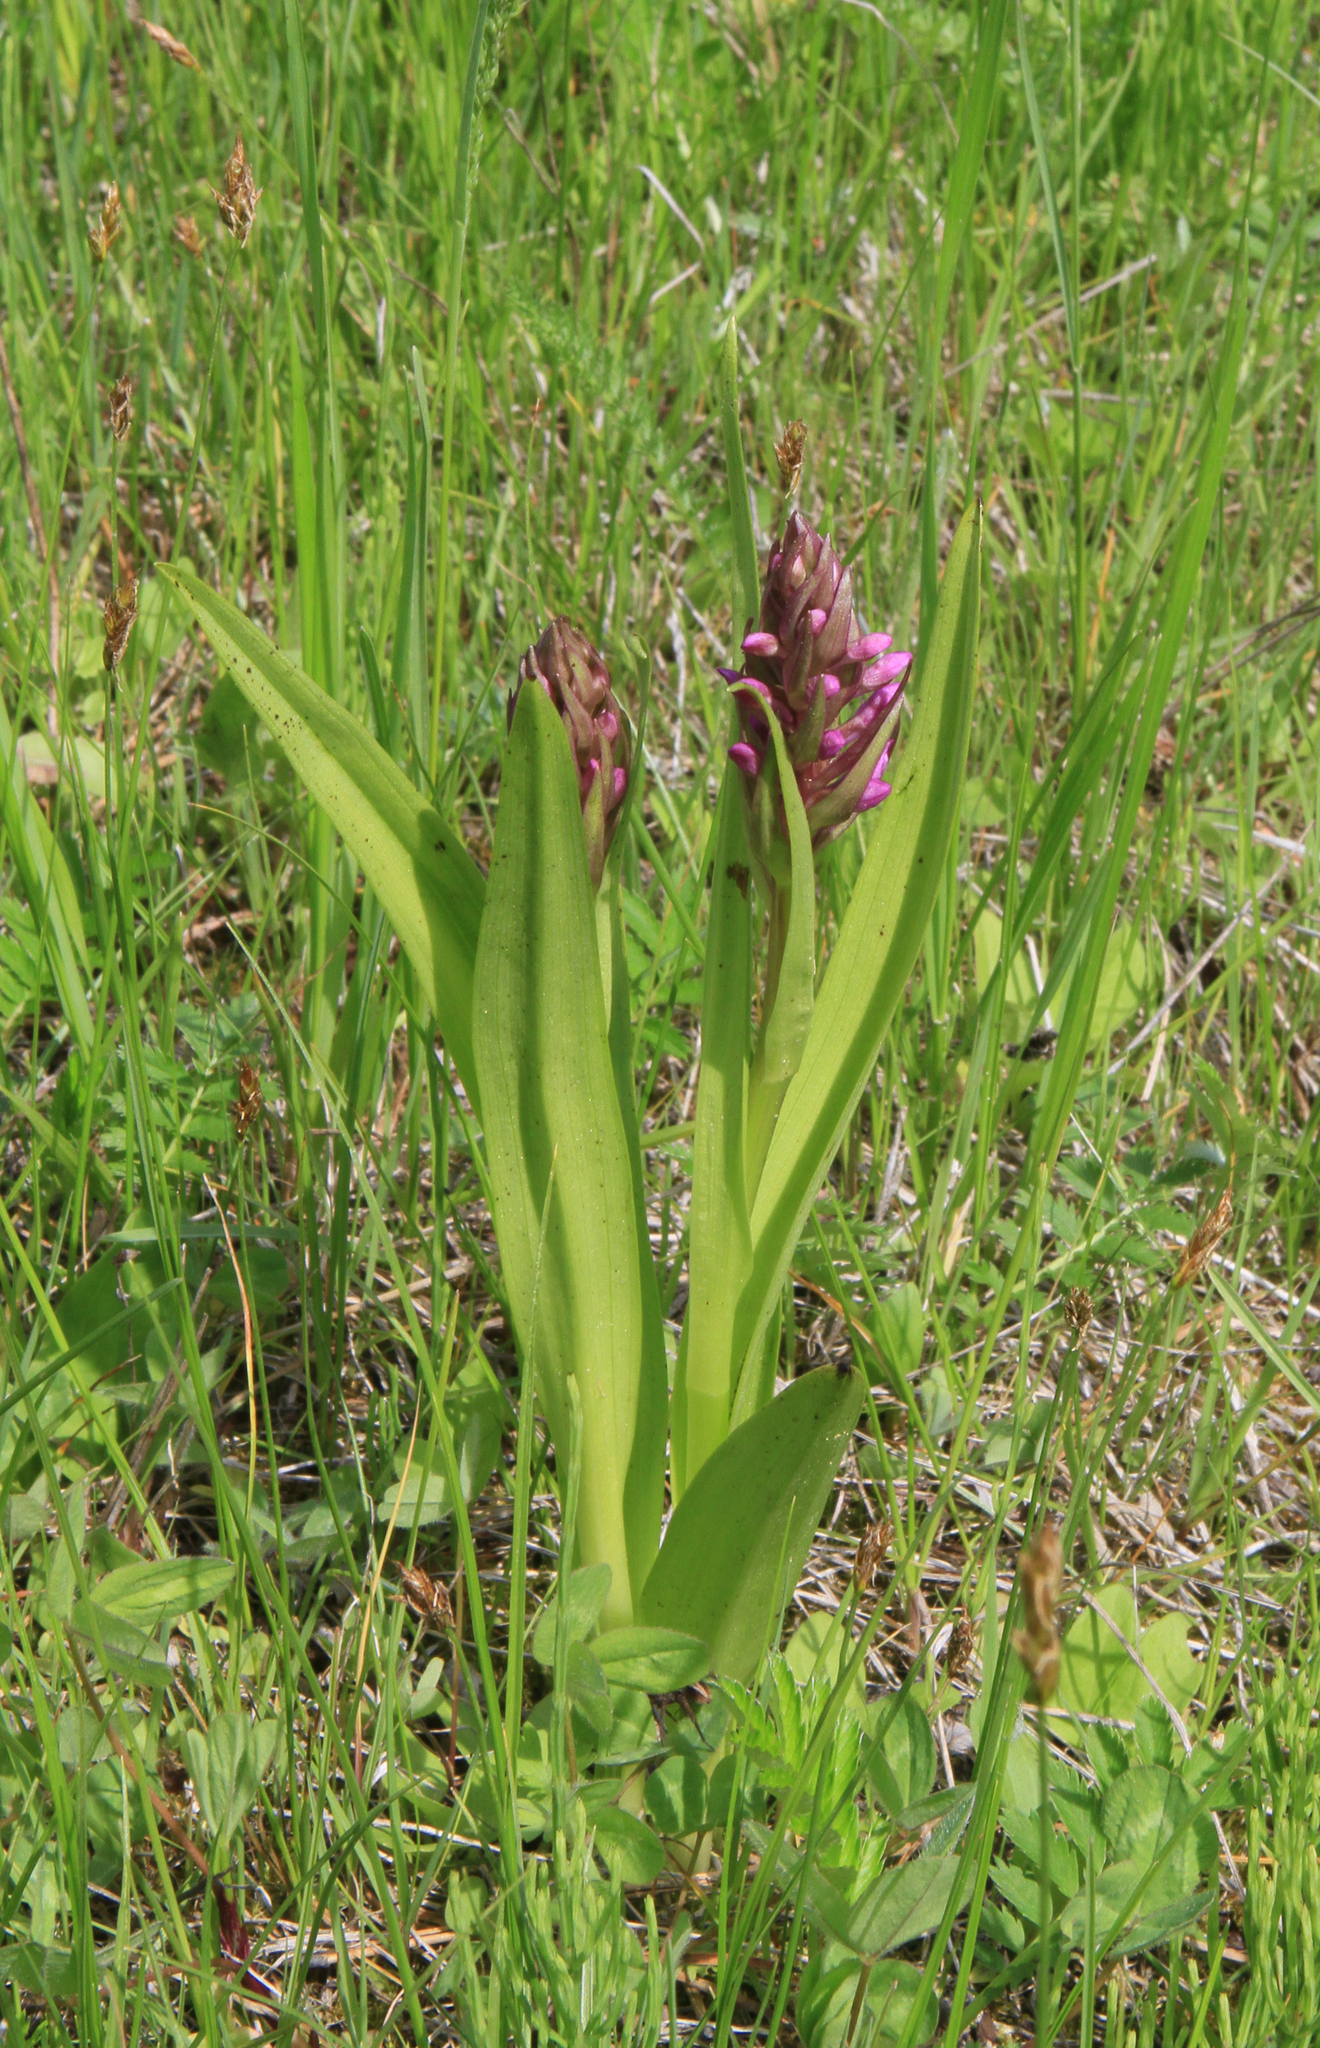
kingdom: Plantae
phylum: Tracheophyta
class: Liliopsida
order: Asparagales
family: Orchidaceae
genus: Dactylorhiza
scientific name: Dactylorhiza incarnata
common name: Early marsh-orchid
